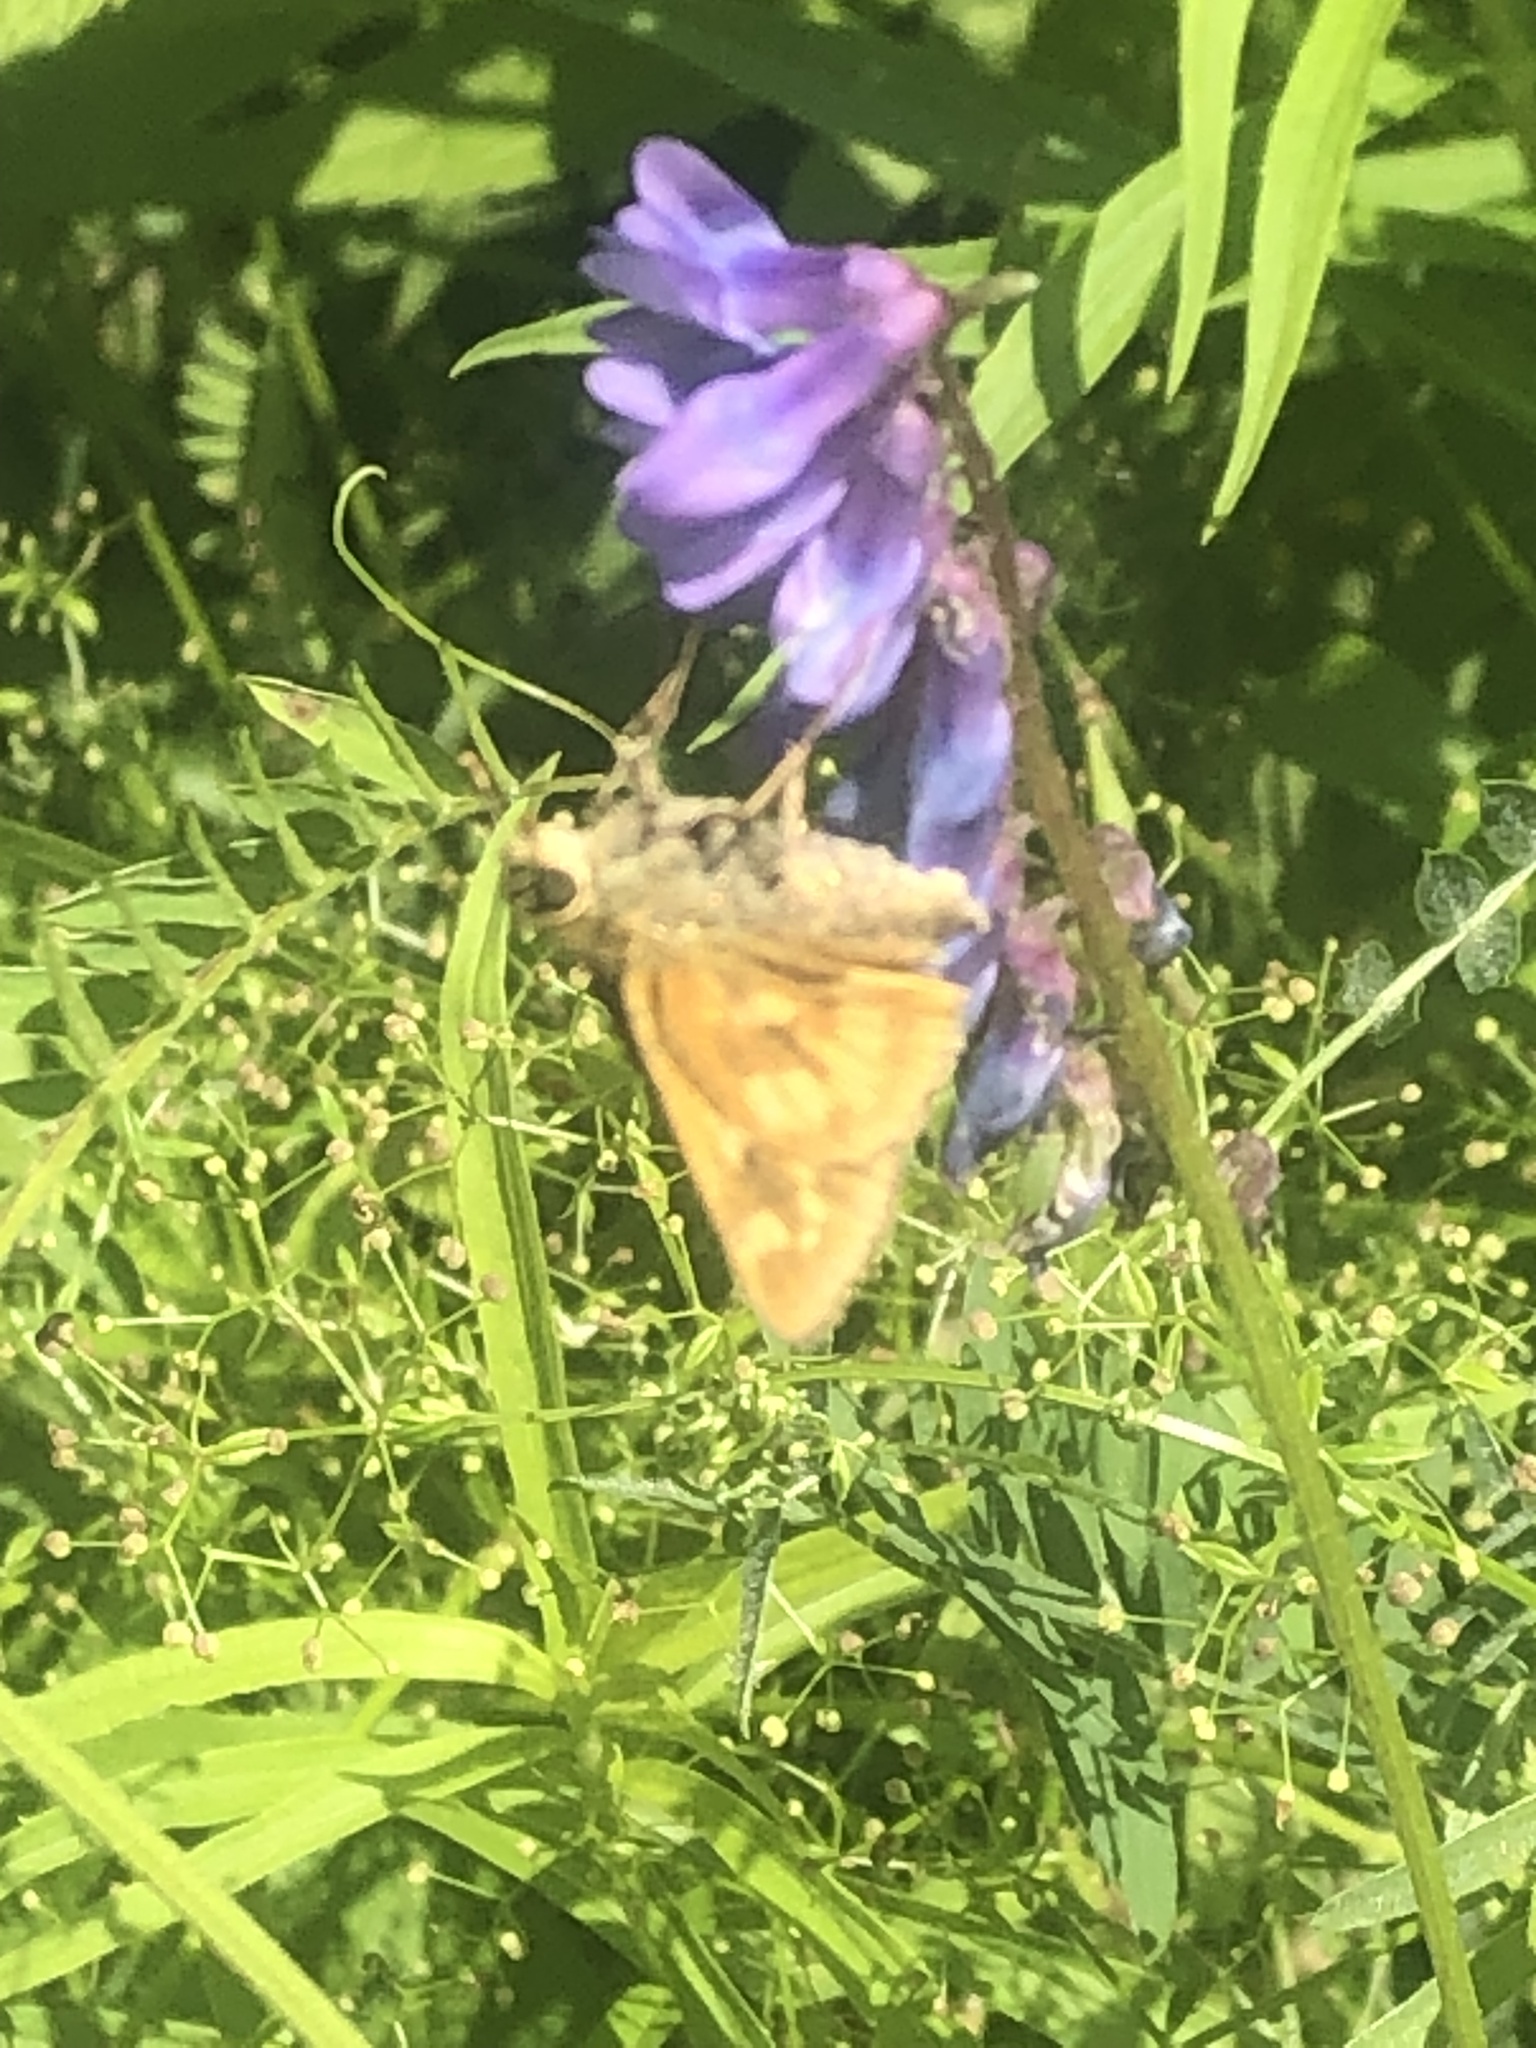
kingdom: Animalia
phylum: Arthropoda
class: Insecta
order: Lepidoptera
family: Hesperiidae
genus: Polites
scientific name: Polites mystic
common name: Long dash
